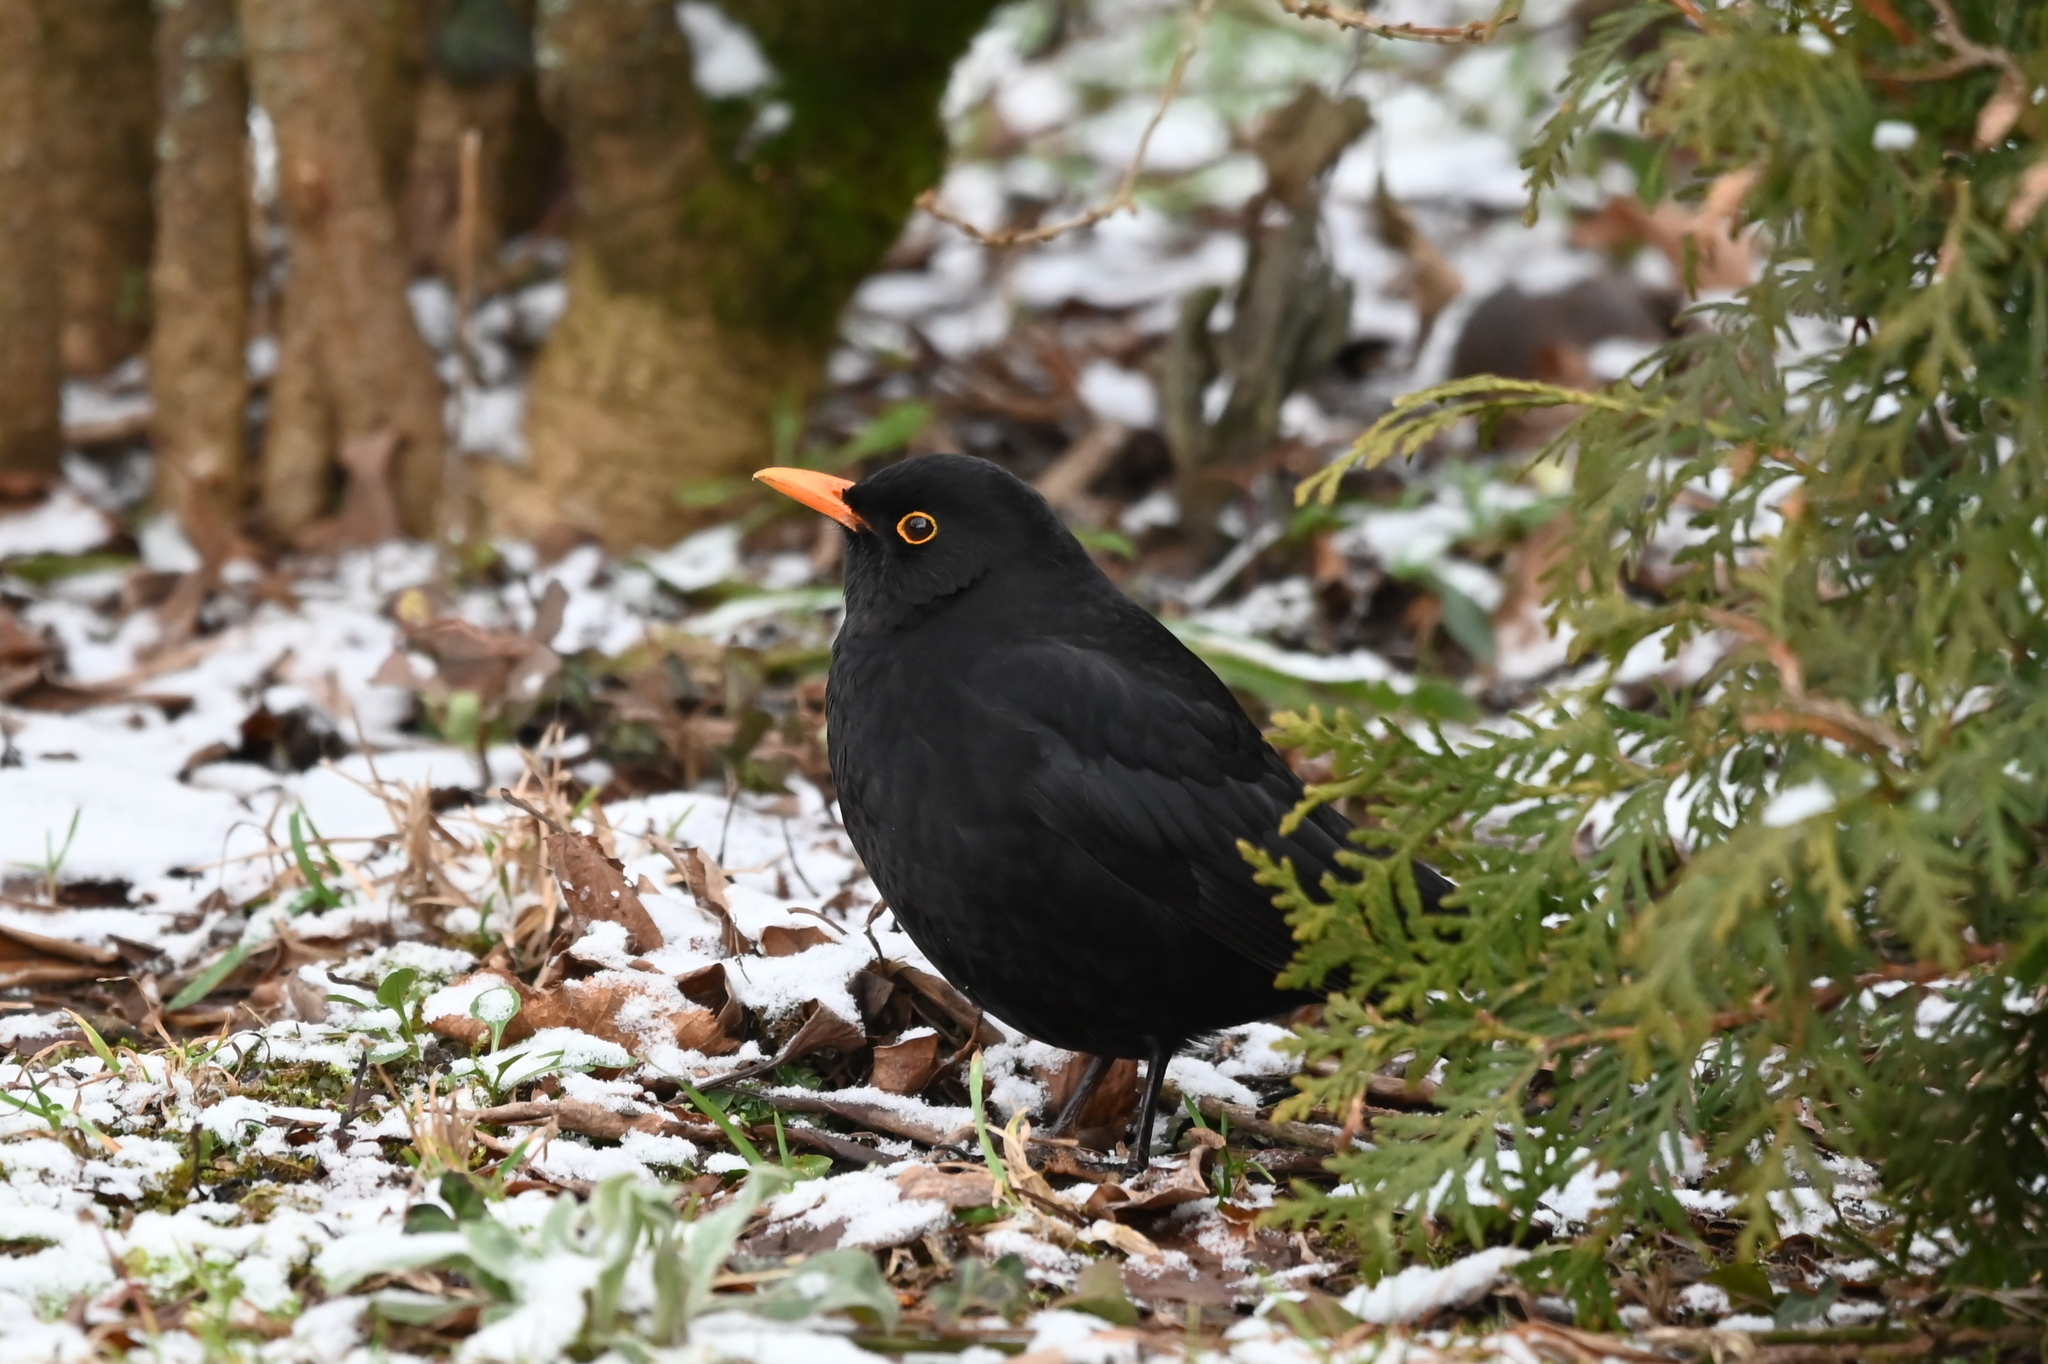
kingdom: Animalia
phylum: Chordata
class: Aves
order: Passeriformes
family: Turdidae
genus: Turdus
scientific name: Turdus merula
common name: Common blackbird
